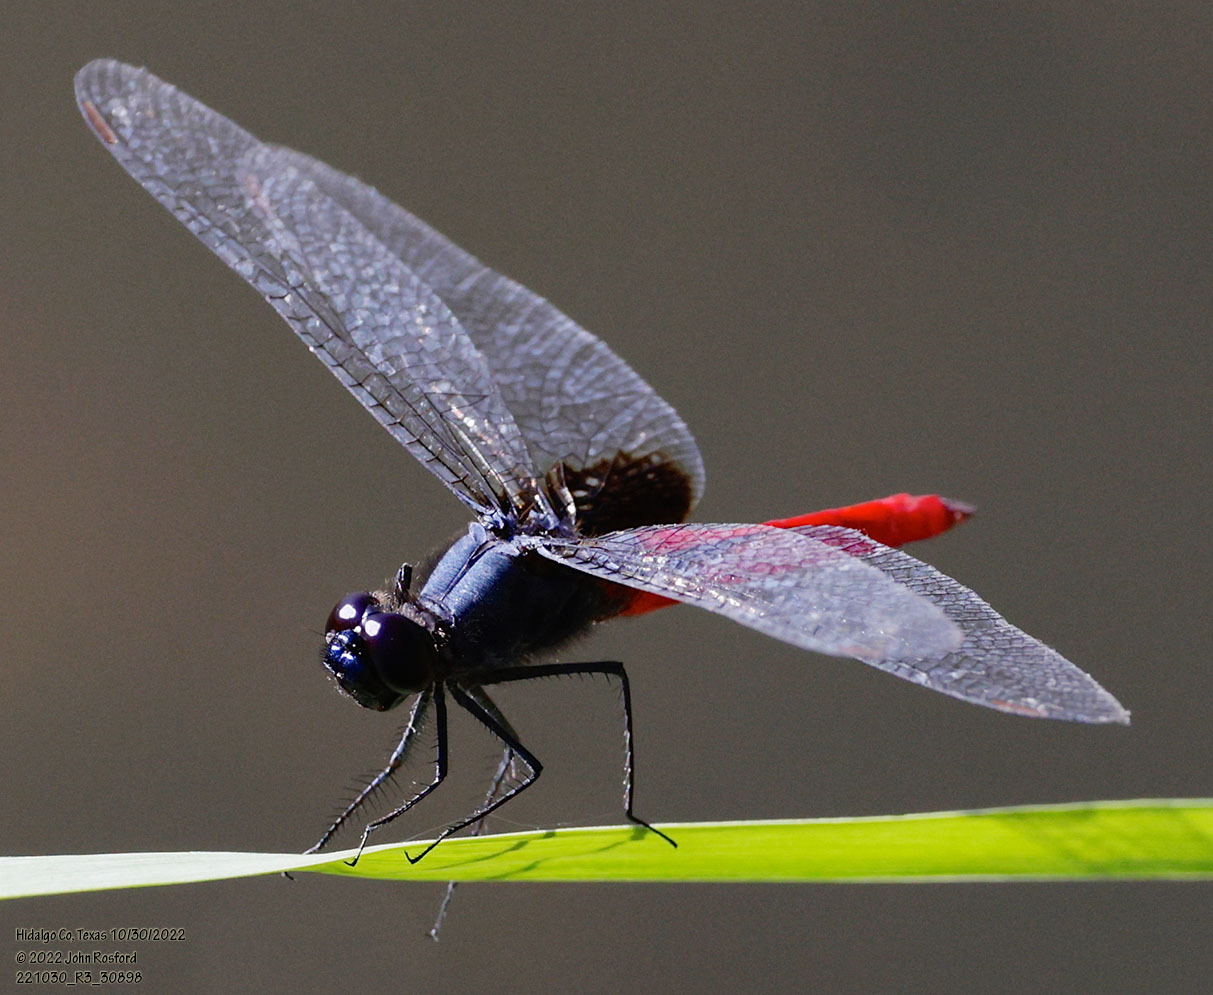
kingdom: Animalia
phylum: Arthropoda
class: Insecta
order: Odonata
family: Libellulidae
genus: Planiplax
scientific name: Planiplax sanguiniventris
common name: Mexican scarlet-tail
